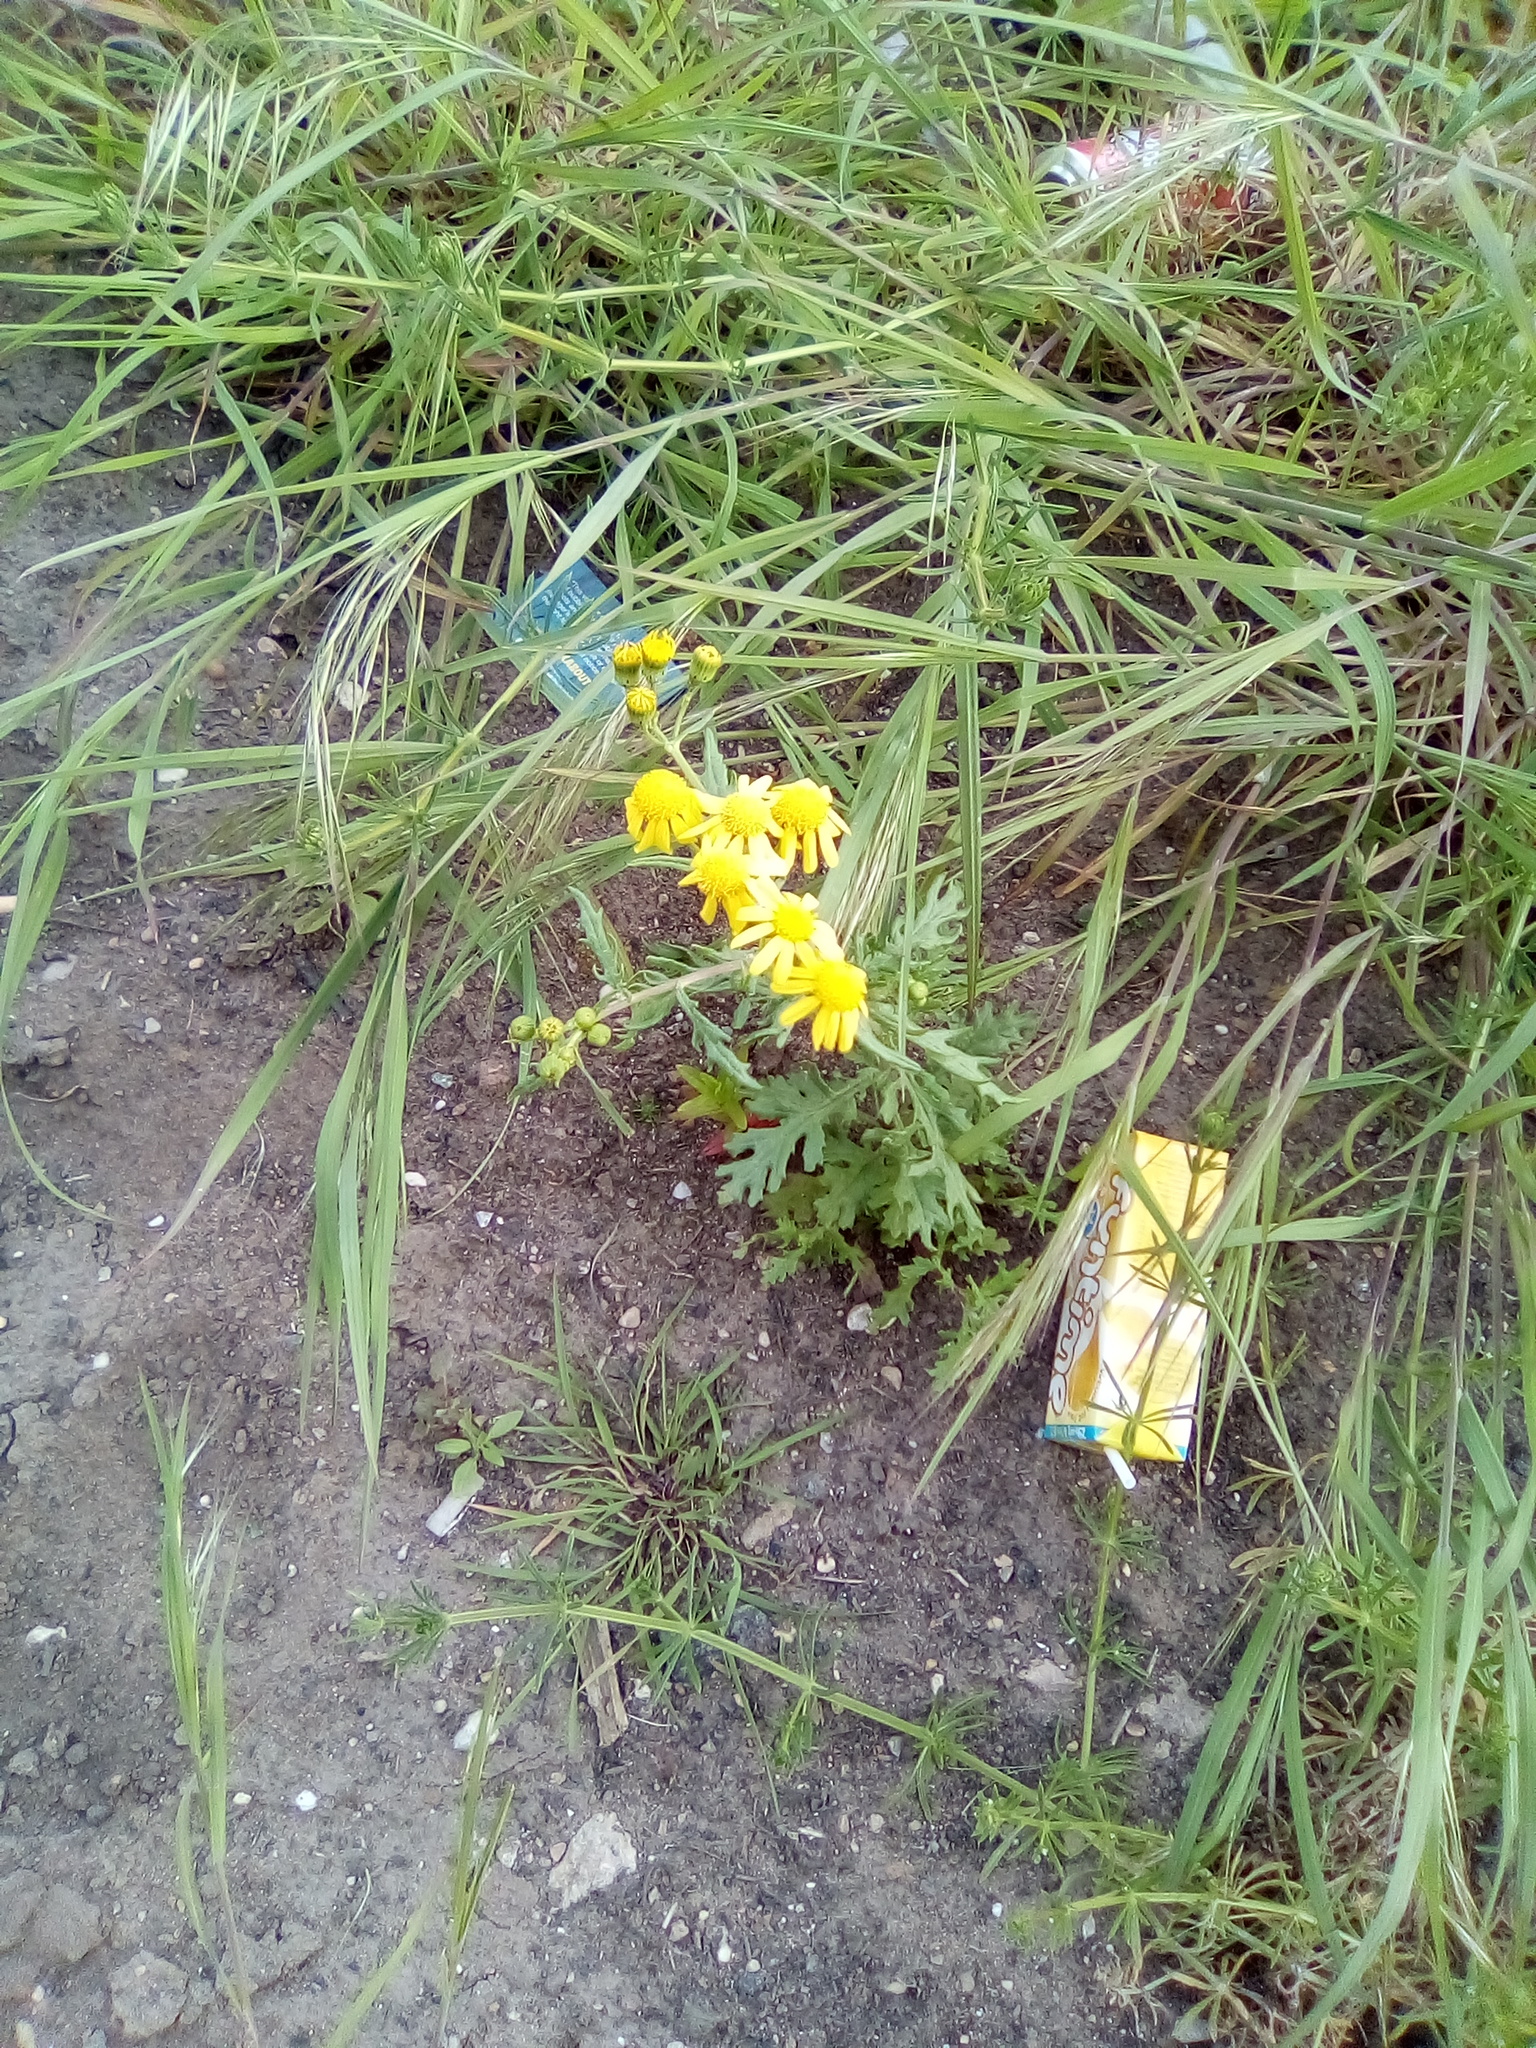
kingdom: Plantae
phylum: Tracheophyta
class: Magnoliopsida
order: Asterales
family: Asteraceae
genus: Senecio
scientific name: Senecio squalidus
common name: Oxford ragwort
